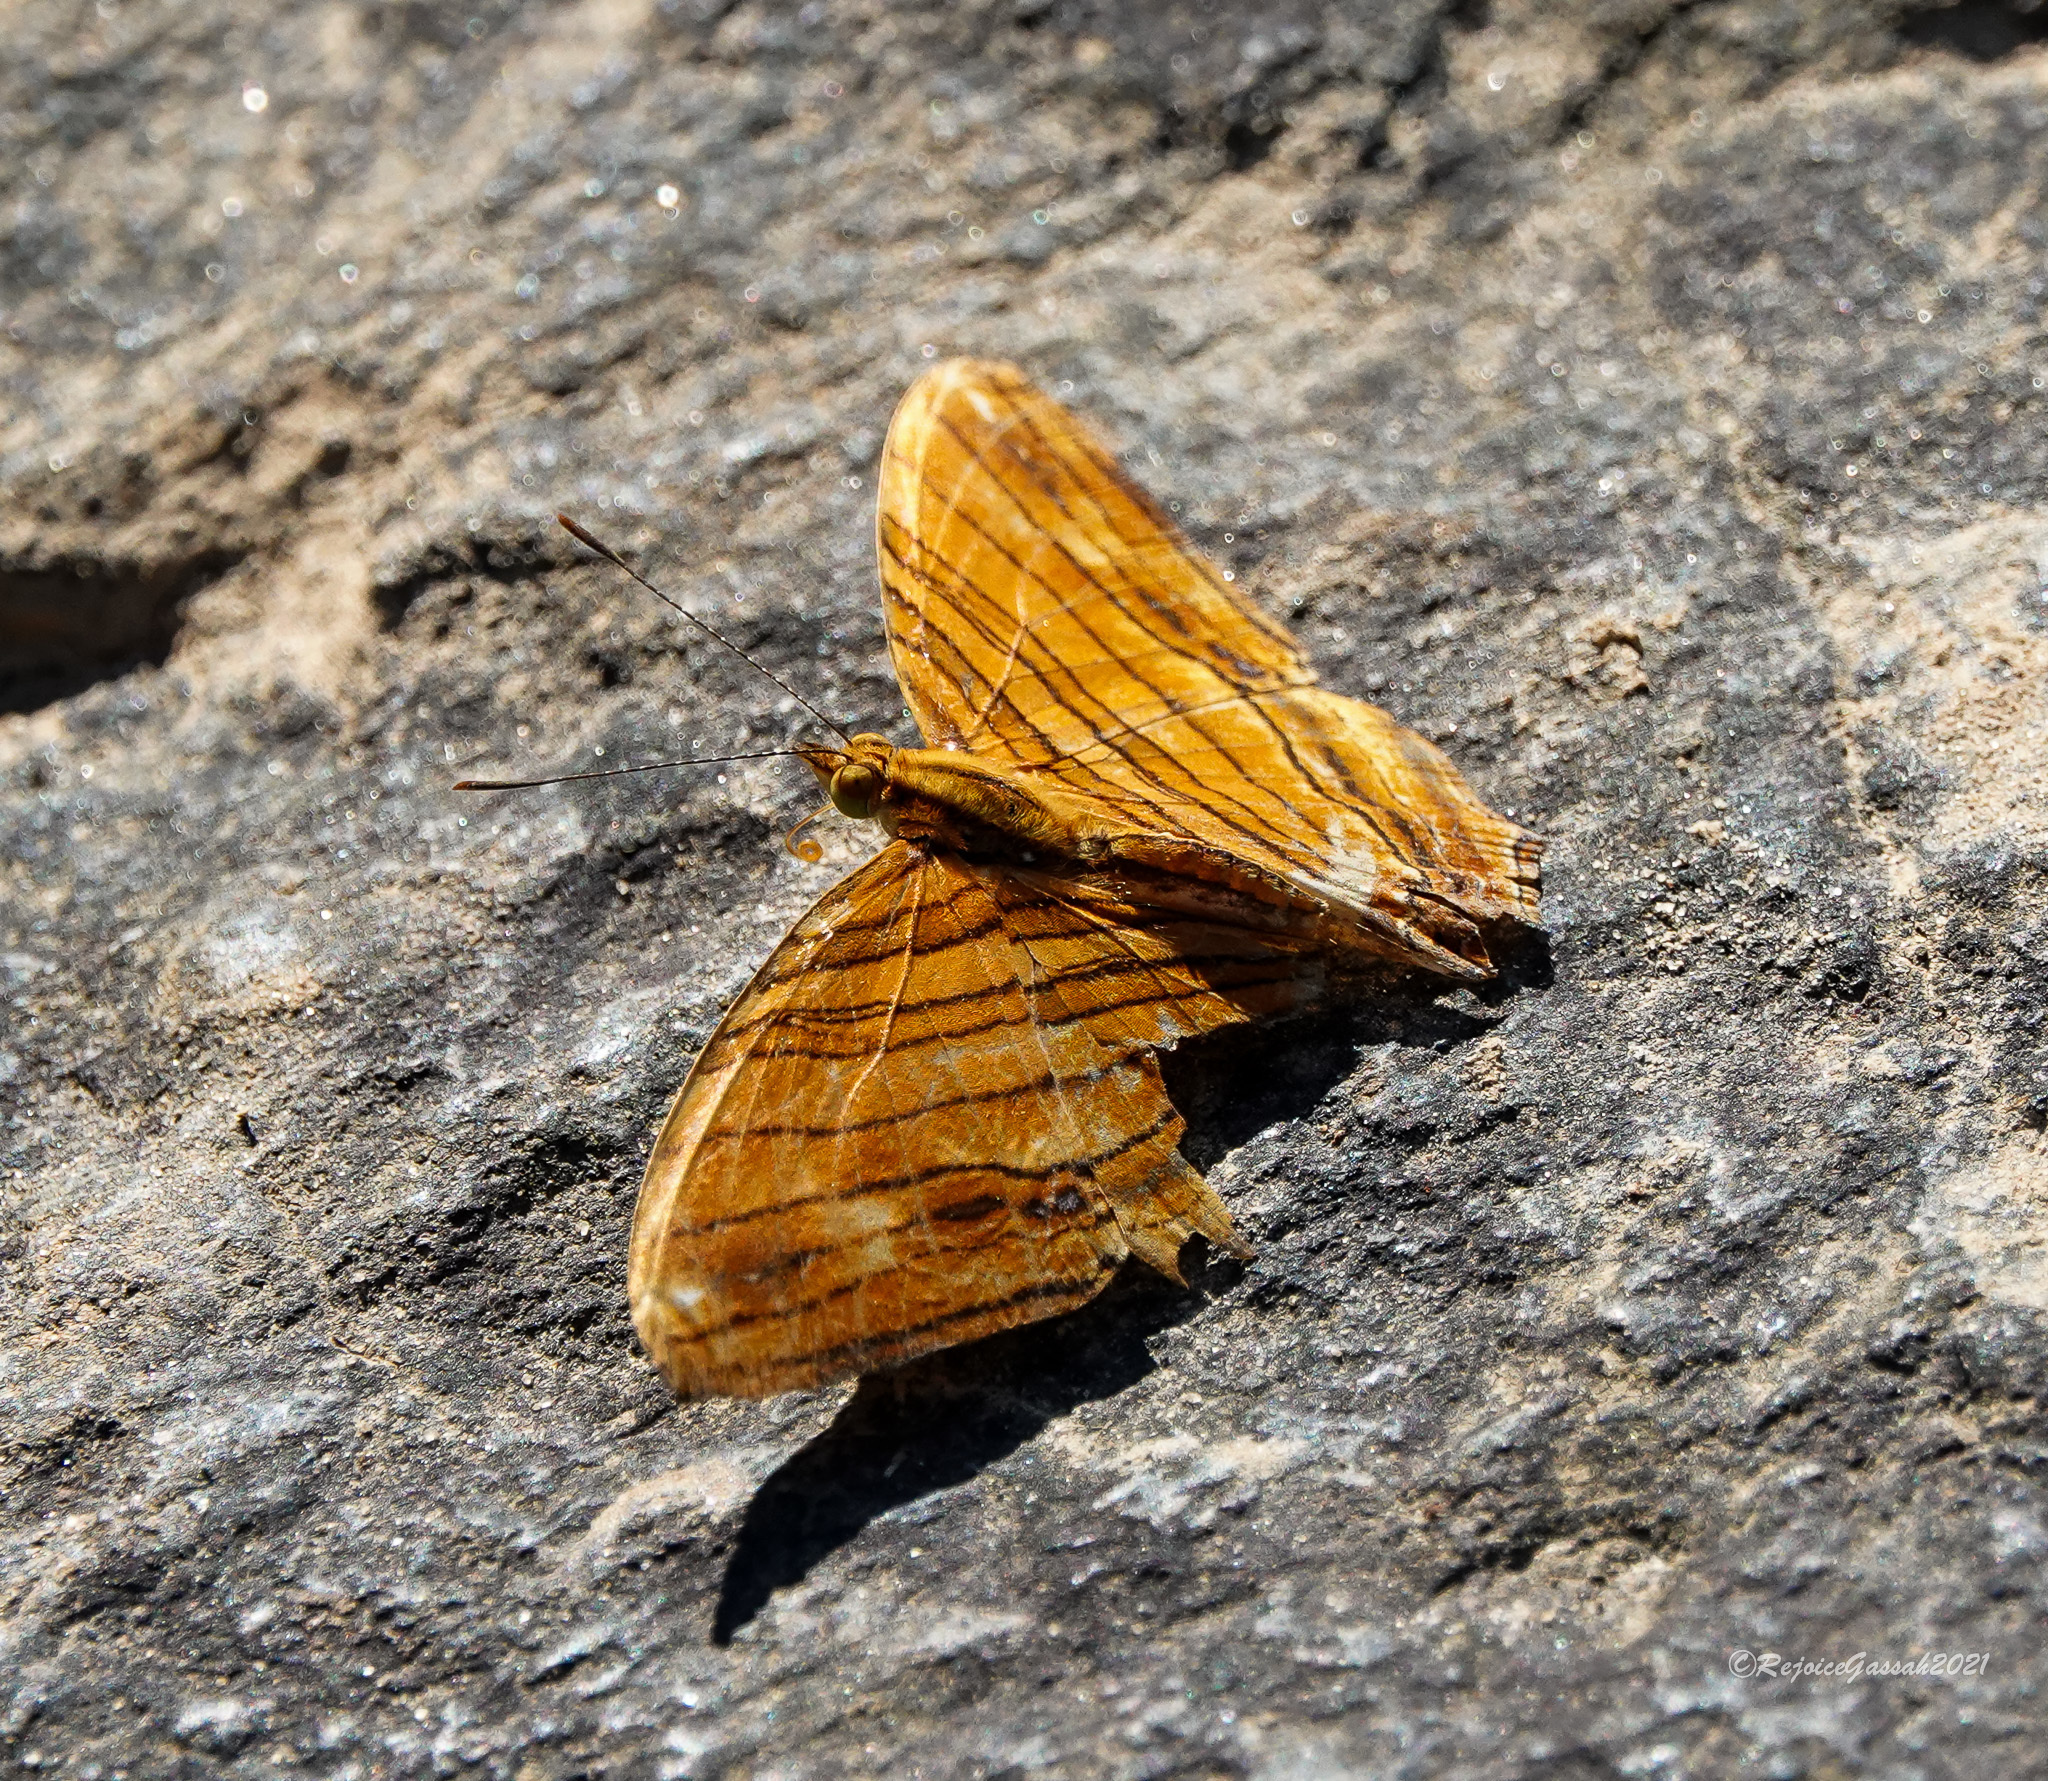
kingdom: Animalia
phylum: Arthropoda
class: Insecta
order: Lepidoptera
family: Nymphalidae
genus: Chersonesia
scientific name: Chersonesia risa
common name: Common maplet
